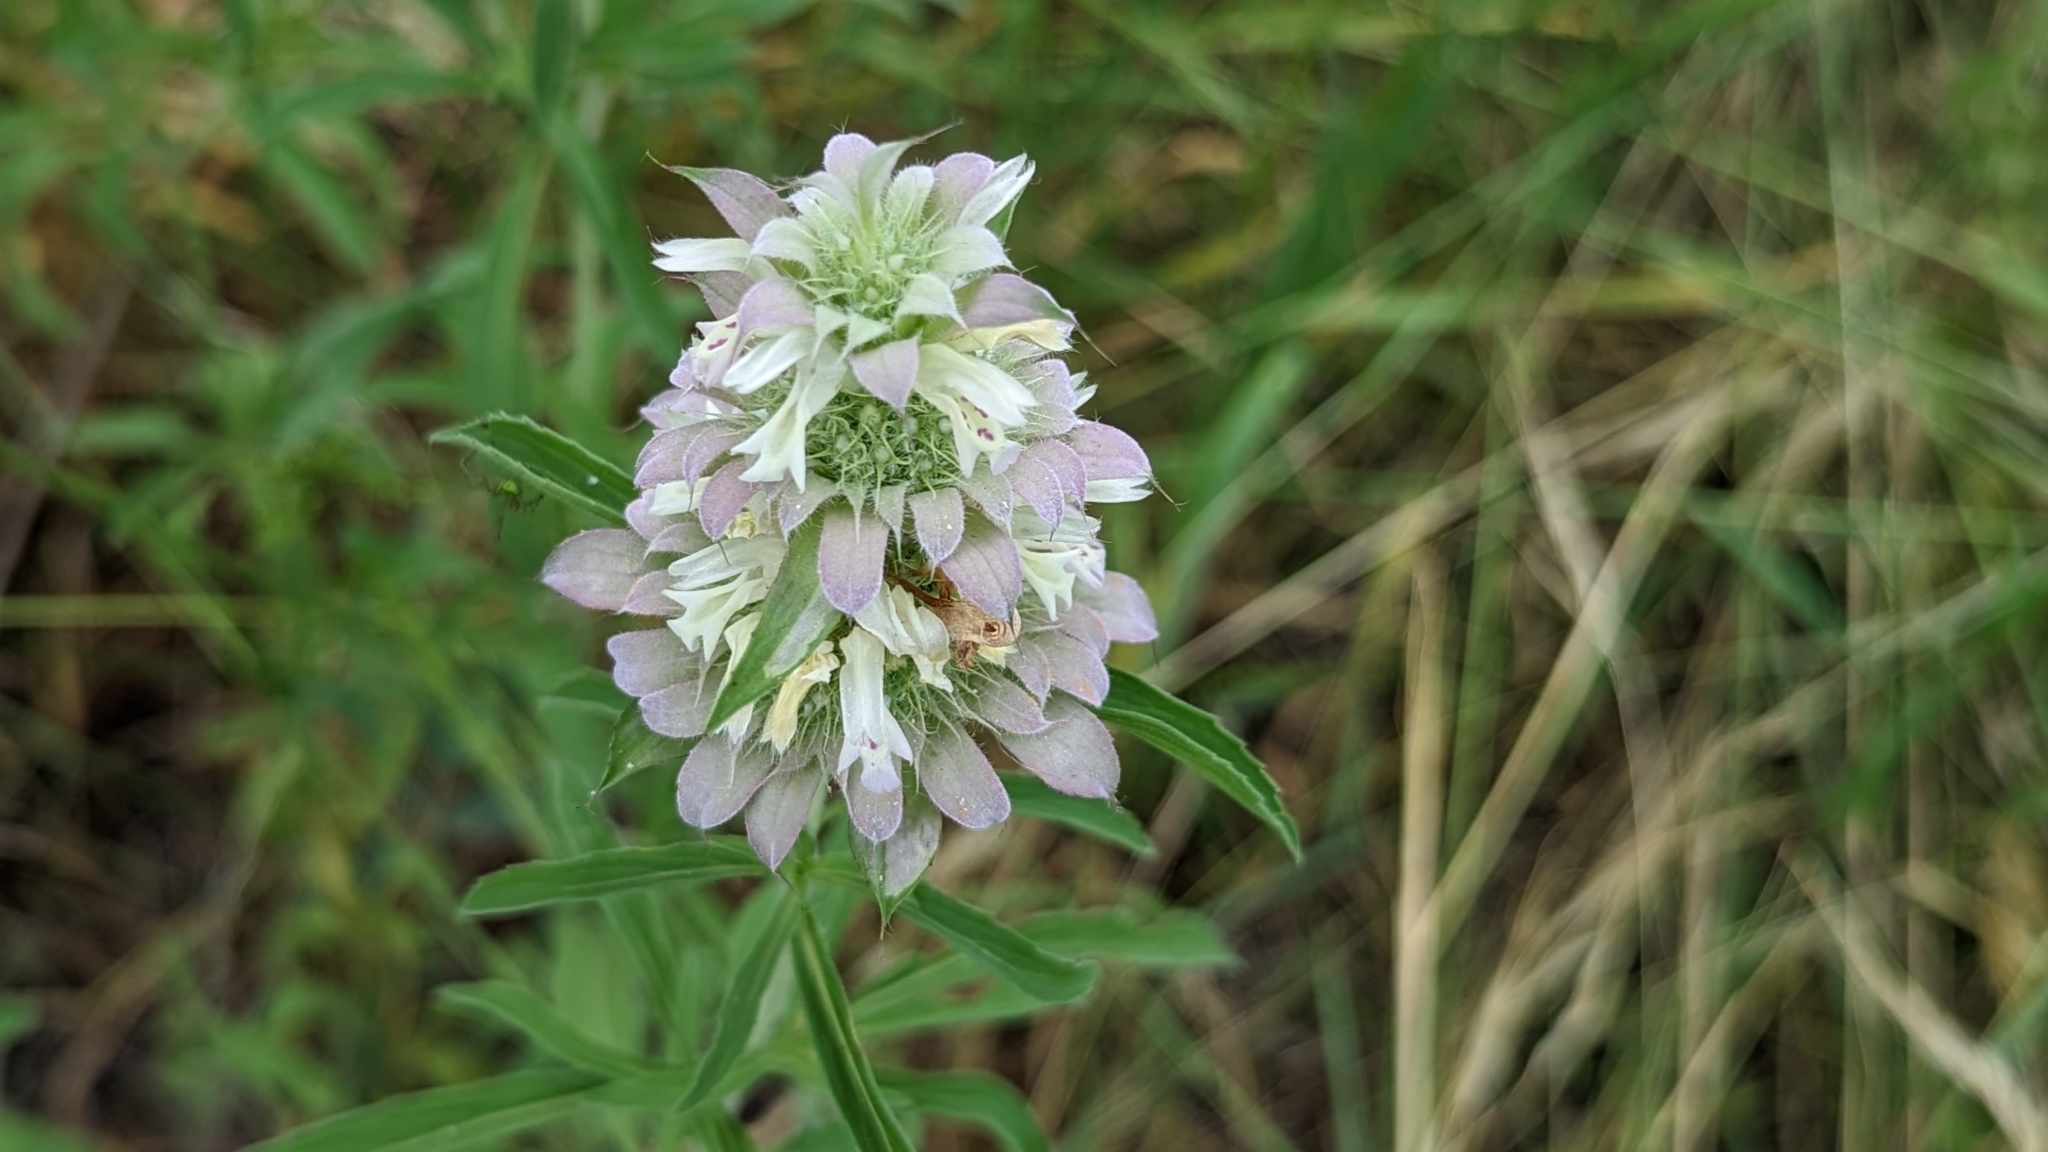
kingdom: Plantae
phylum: Tracheophyta
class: Magnoliopsida
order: Lamiales
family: Lamiaceae
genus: Monarda
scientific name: Monarda citriodora
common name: Lemon beebalm
